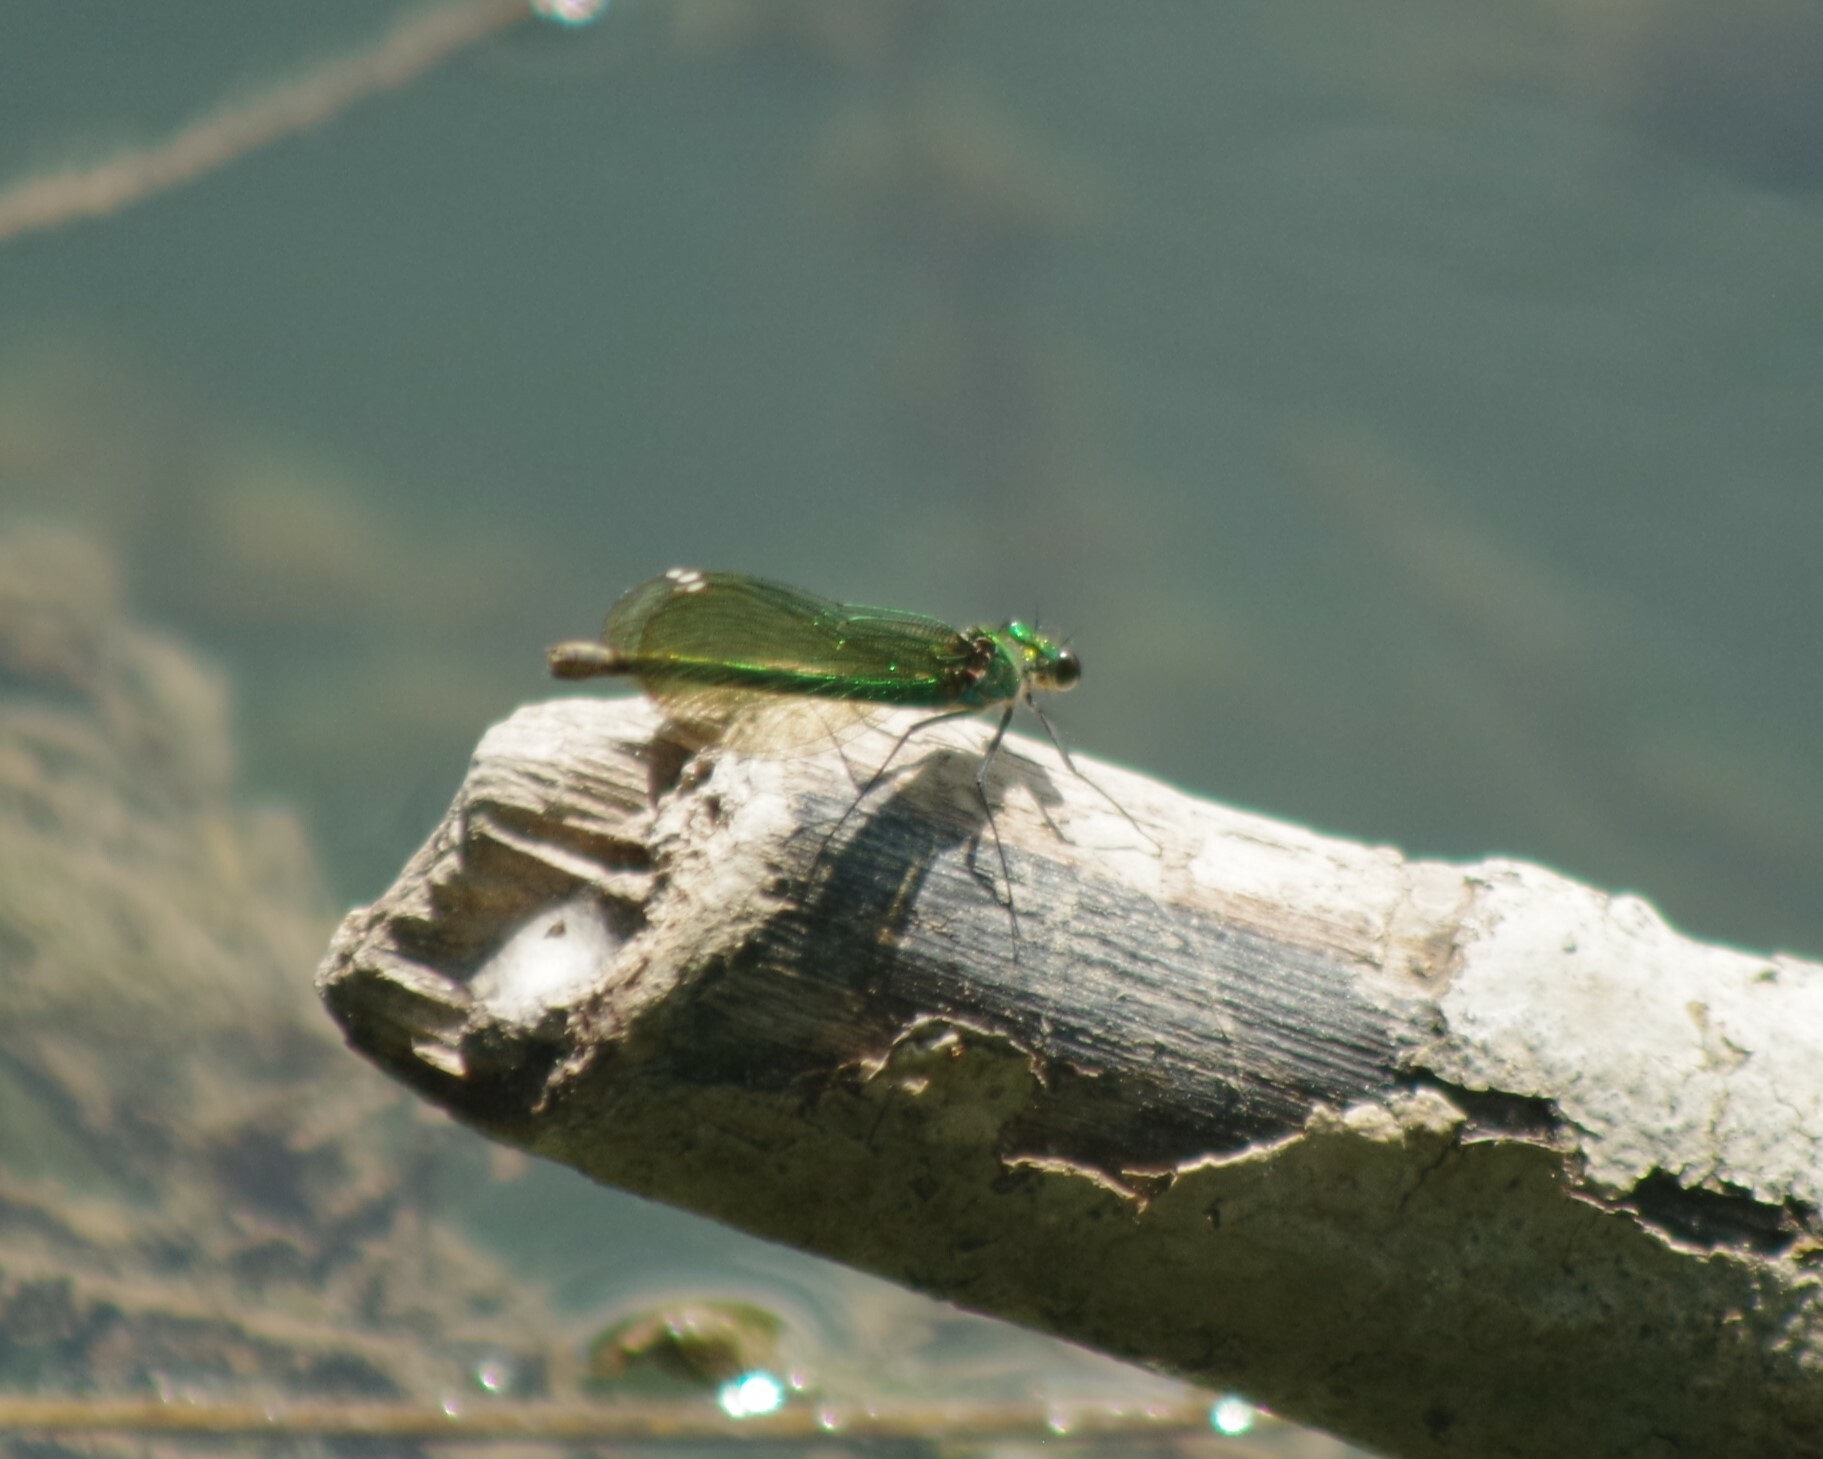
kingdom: Animalia
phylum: Arthropoda
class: Insecta
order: Odonata
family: Calopterygidae
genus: Calopteryx
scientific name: Calopteryx splendens
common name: Banded demoiselle
